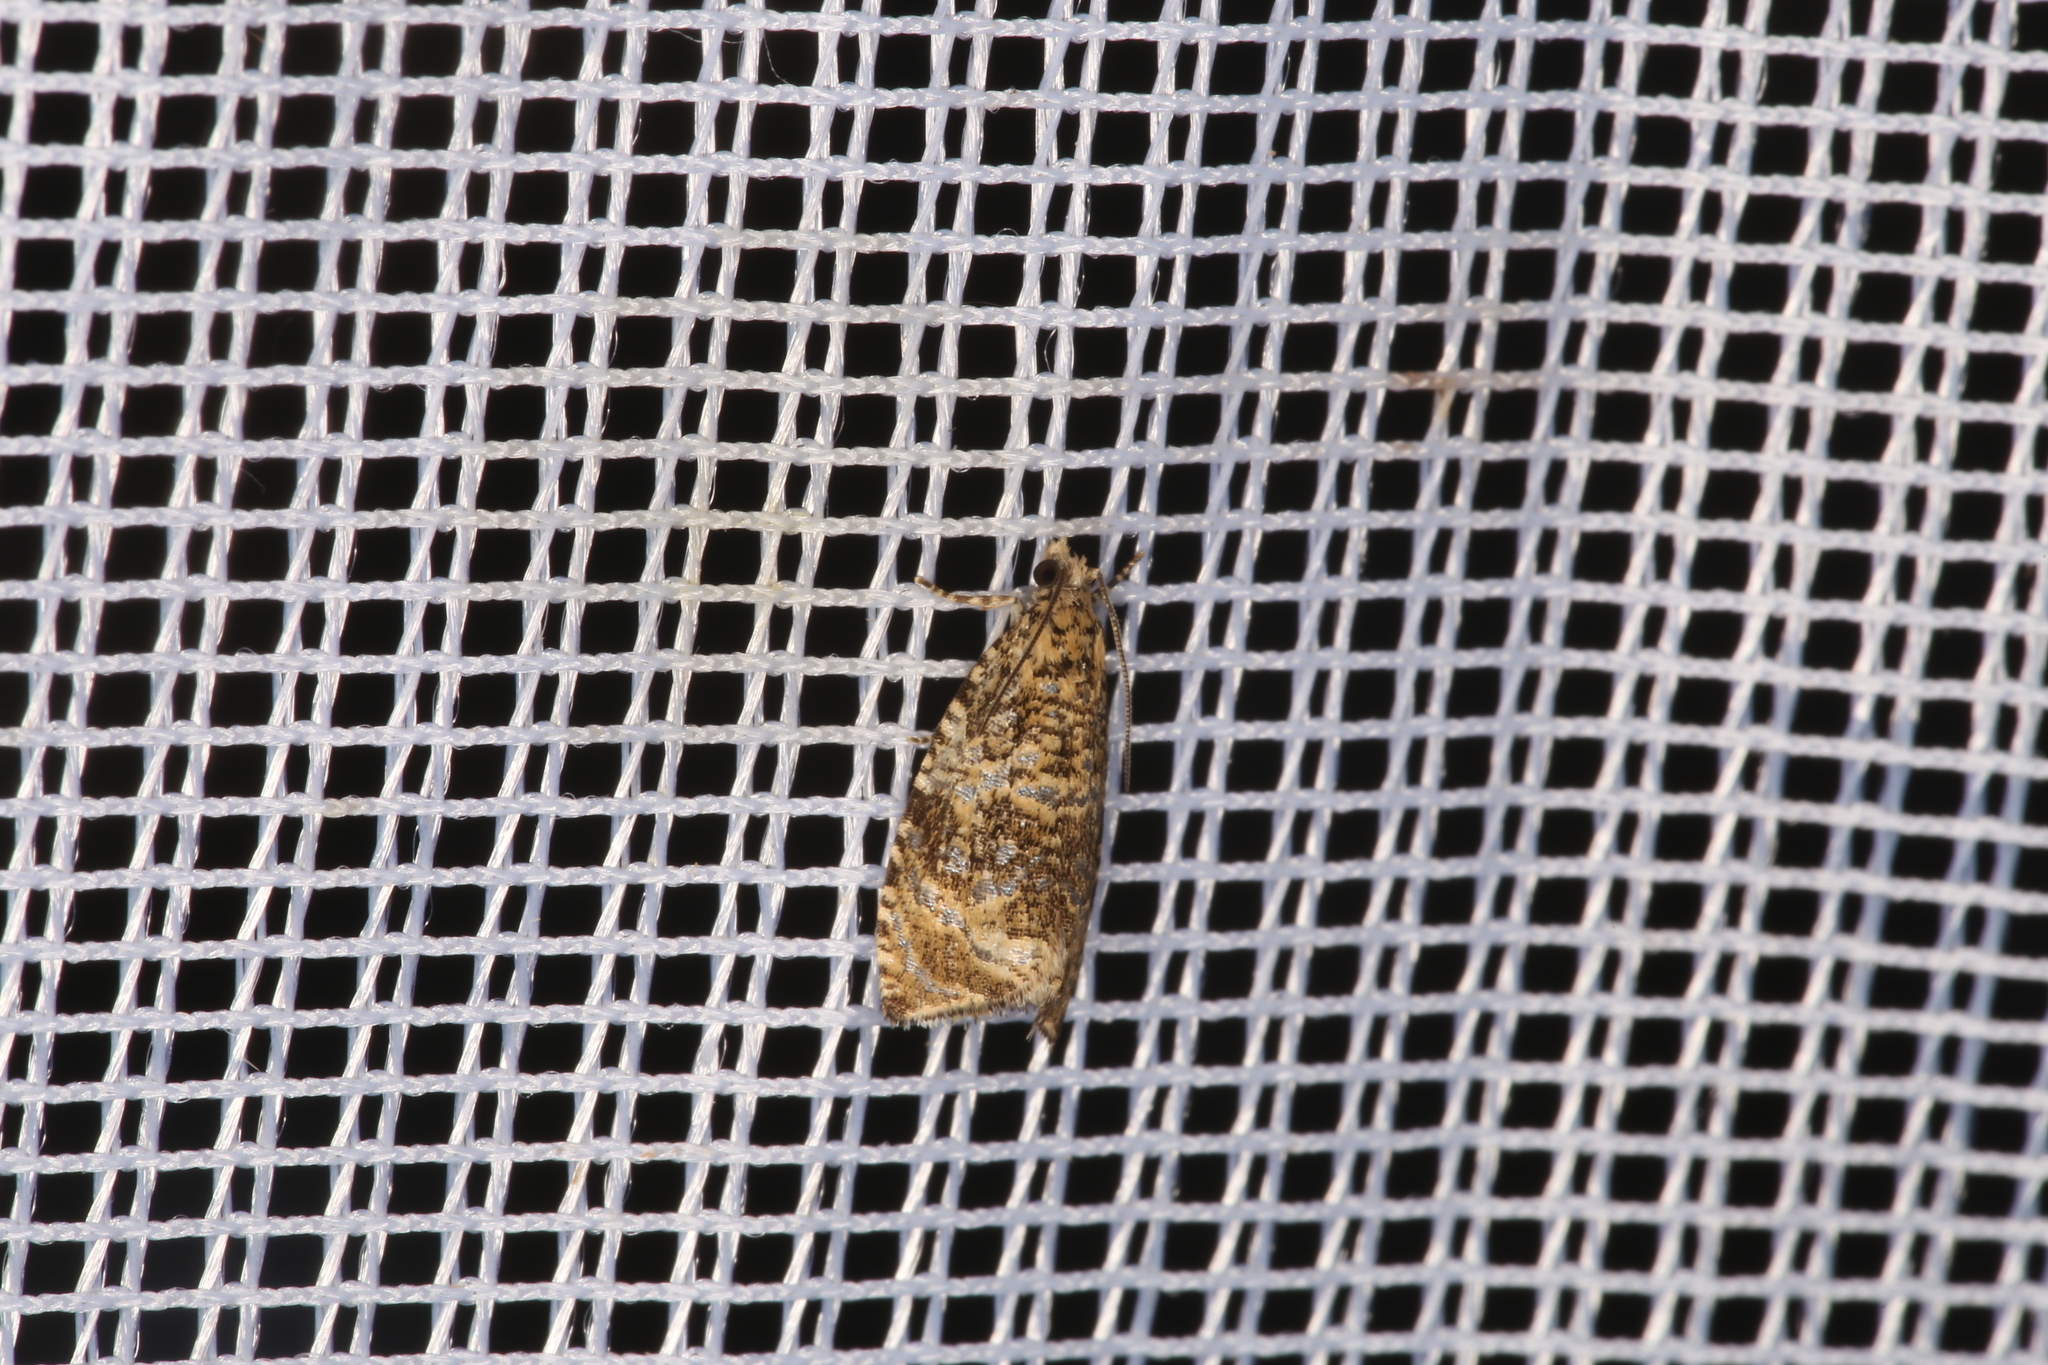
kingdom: Animalia
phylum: Arthropoda
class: Insecta
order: Lepidoptera
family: Tortricidae
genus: Syricoris
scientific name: Syricoris lacunana
